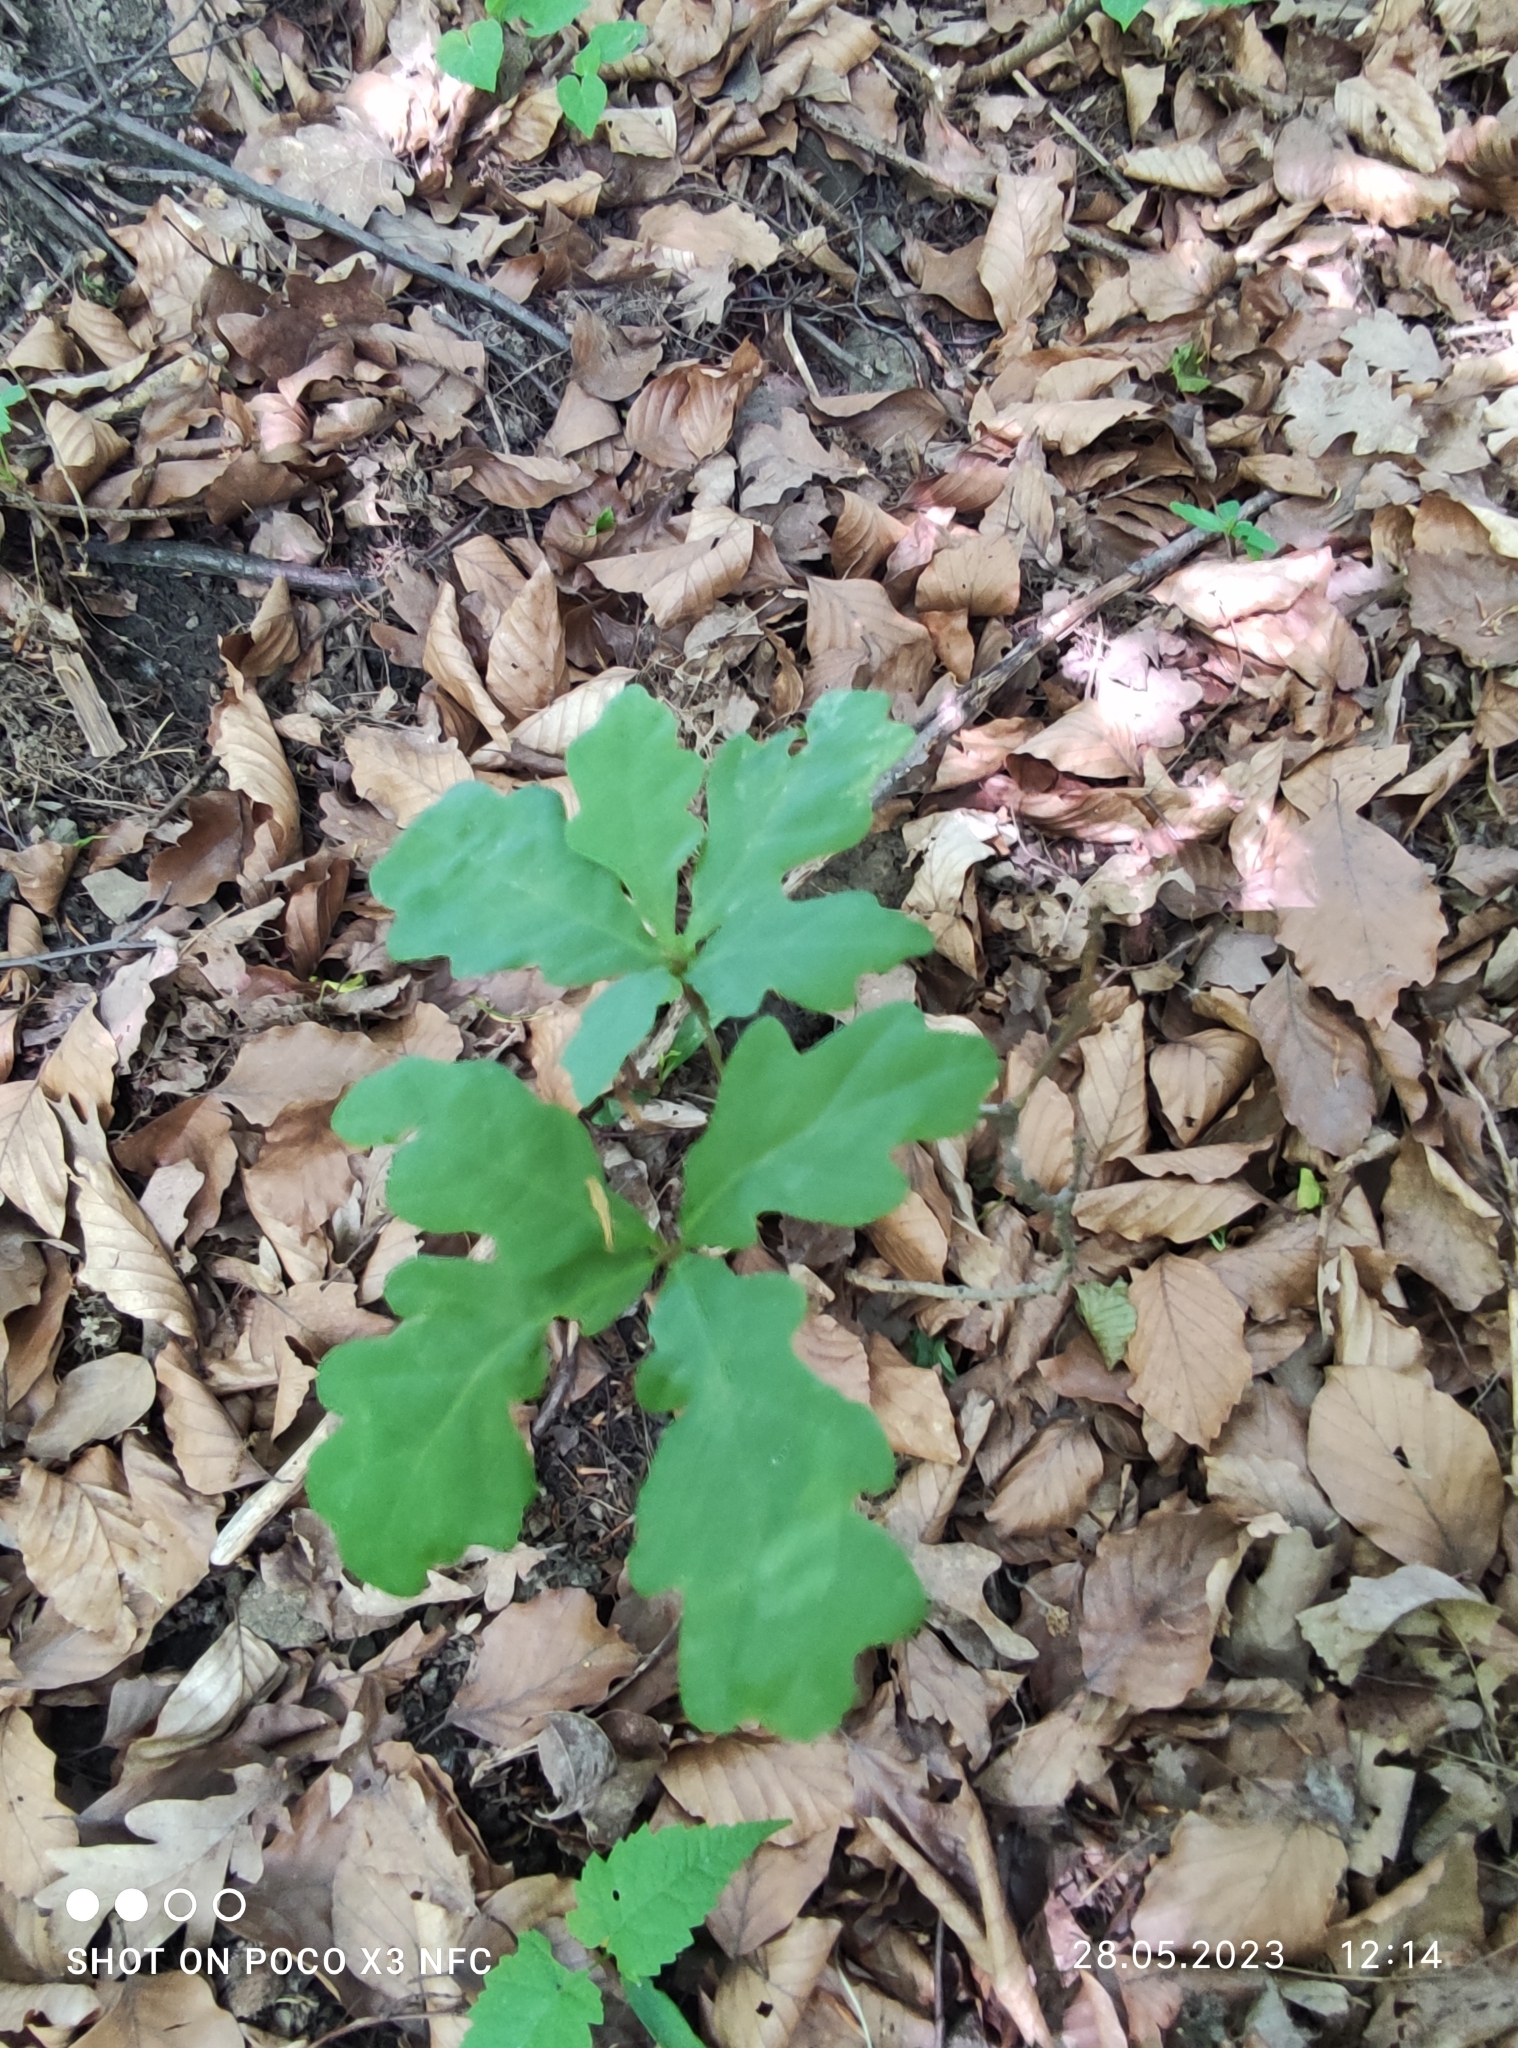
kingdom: Plantae
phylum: Tracheophyta
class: Magnoliopsida
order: Fagales
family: Fagaceae
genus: Quercus
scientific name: Quercus robur
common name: Pedunculate oak
